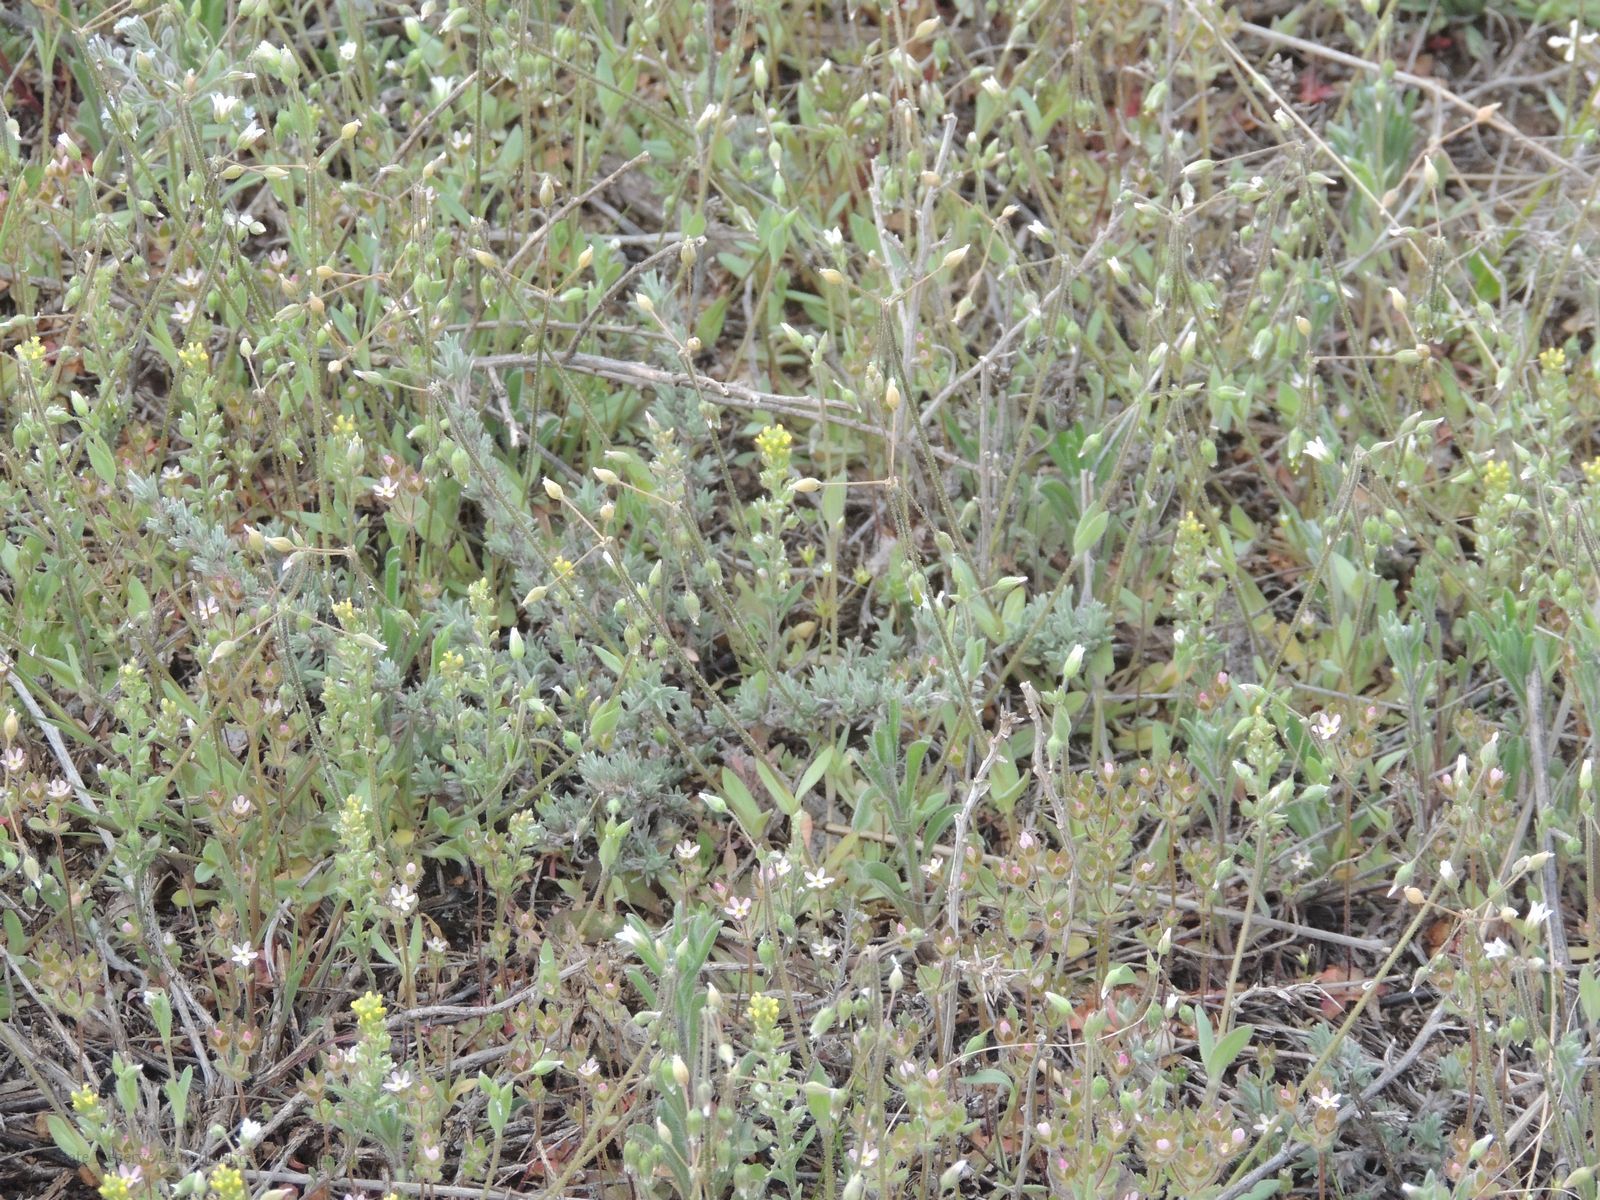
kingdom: Plantae
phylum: Tracheophyta
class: Magnoliopsida
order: Caryophyllales
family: Caryophyllaceae
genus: Holosteum
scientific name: Holosteum umbellatum
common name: Jagged chickweed
